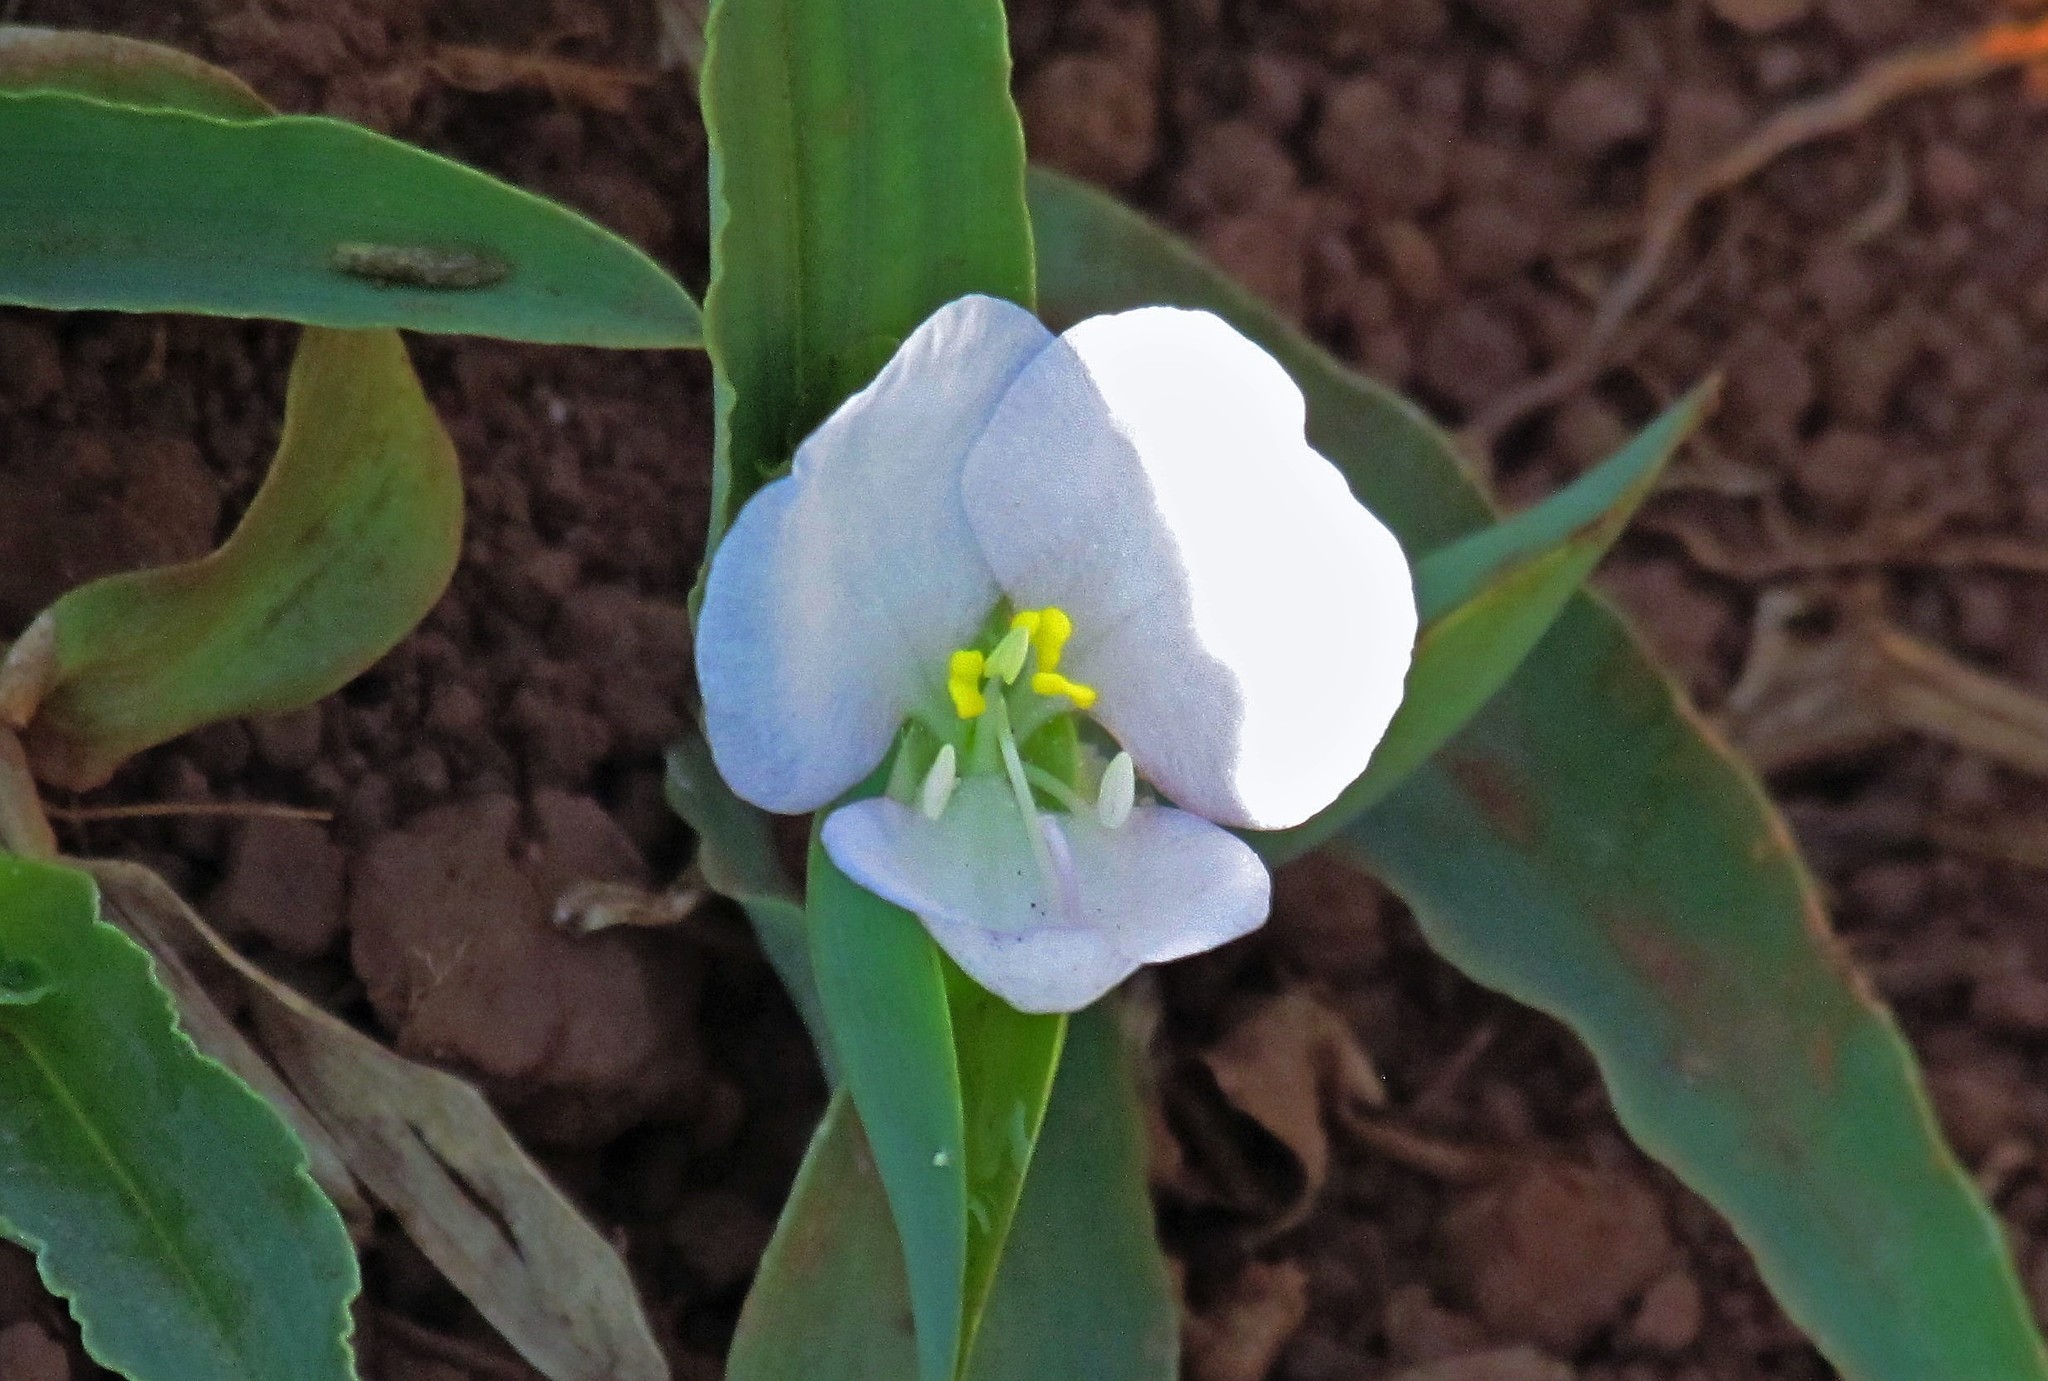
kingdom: Plantae
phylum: Tracheophyta
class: Liliopsida
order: Commelinales
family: Commelinaceae
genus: Commelina
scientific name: Commelina platyphylla
